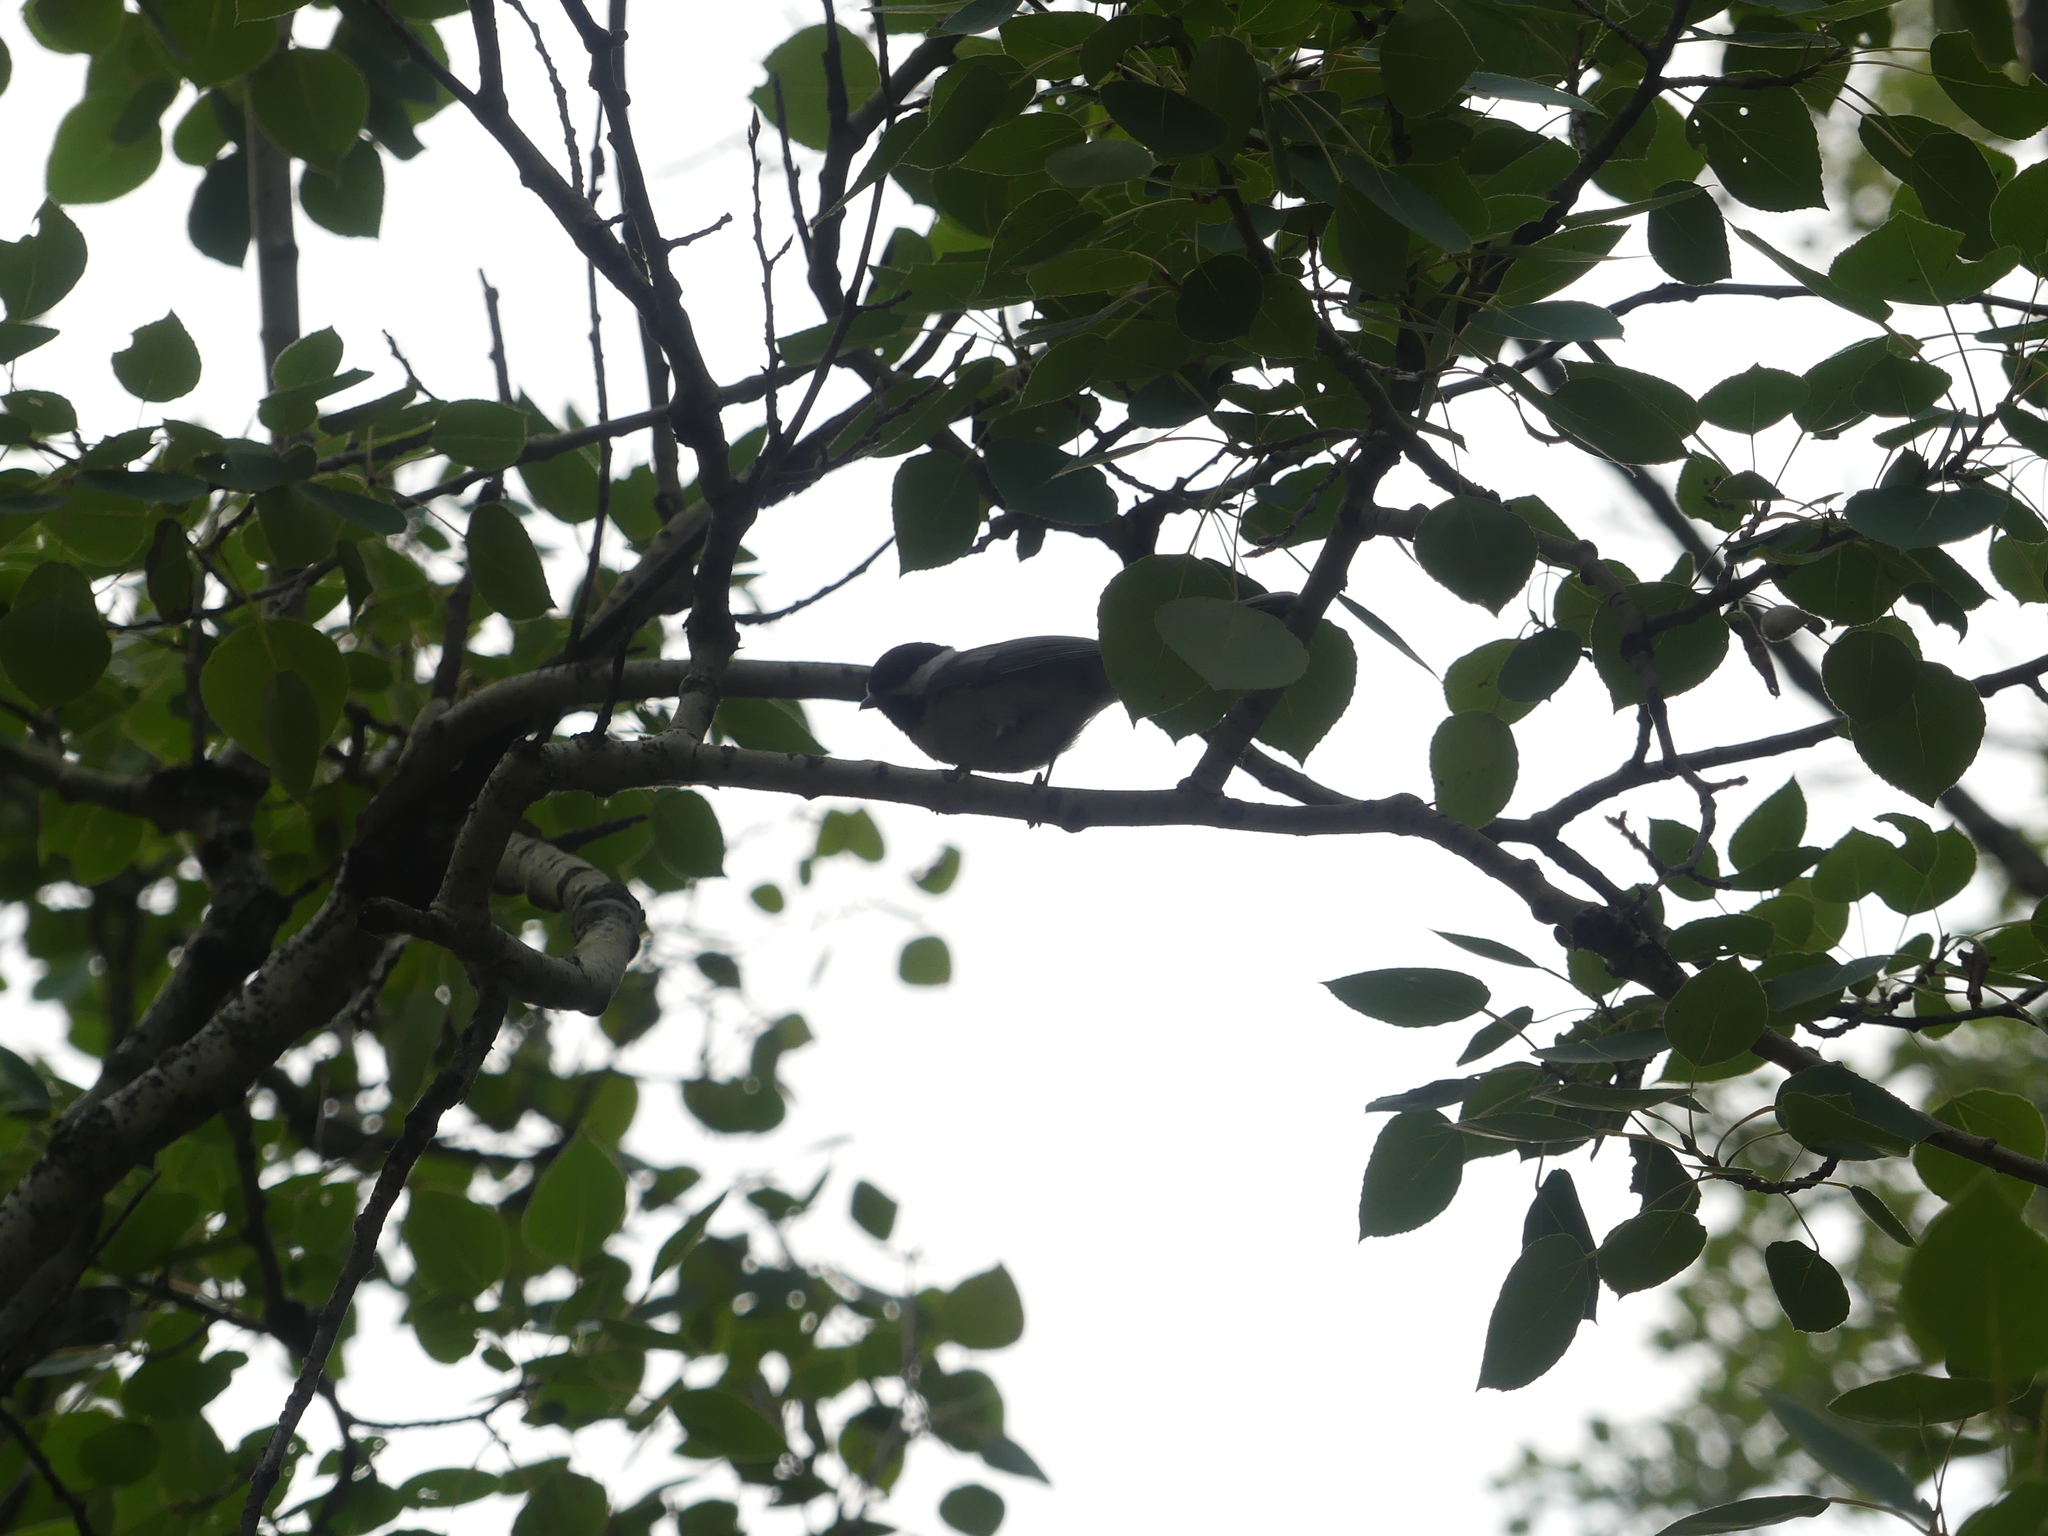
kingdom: Animalia
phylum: Chordata
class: Aves
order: Passeriformes
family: Paridae
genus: Poecile
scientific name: Poecile atricapillus
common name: Black-capped chickadee
